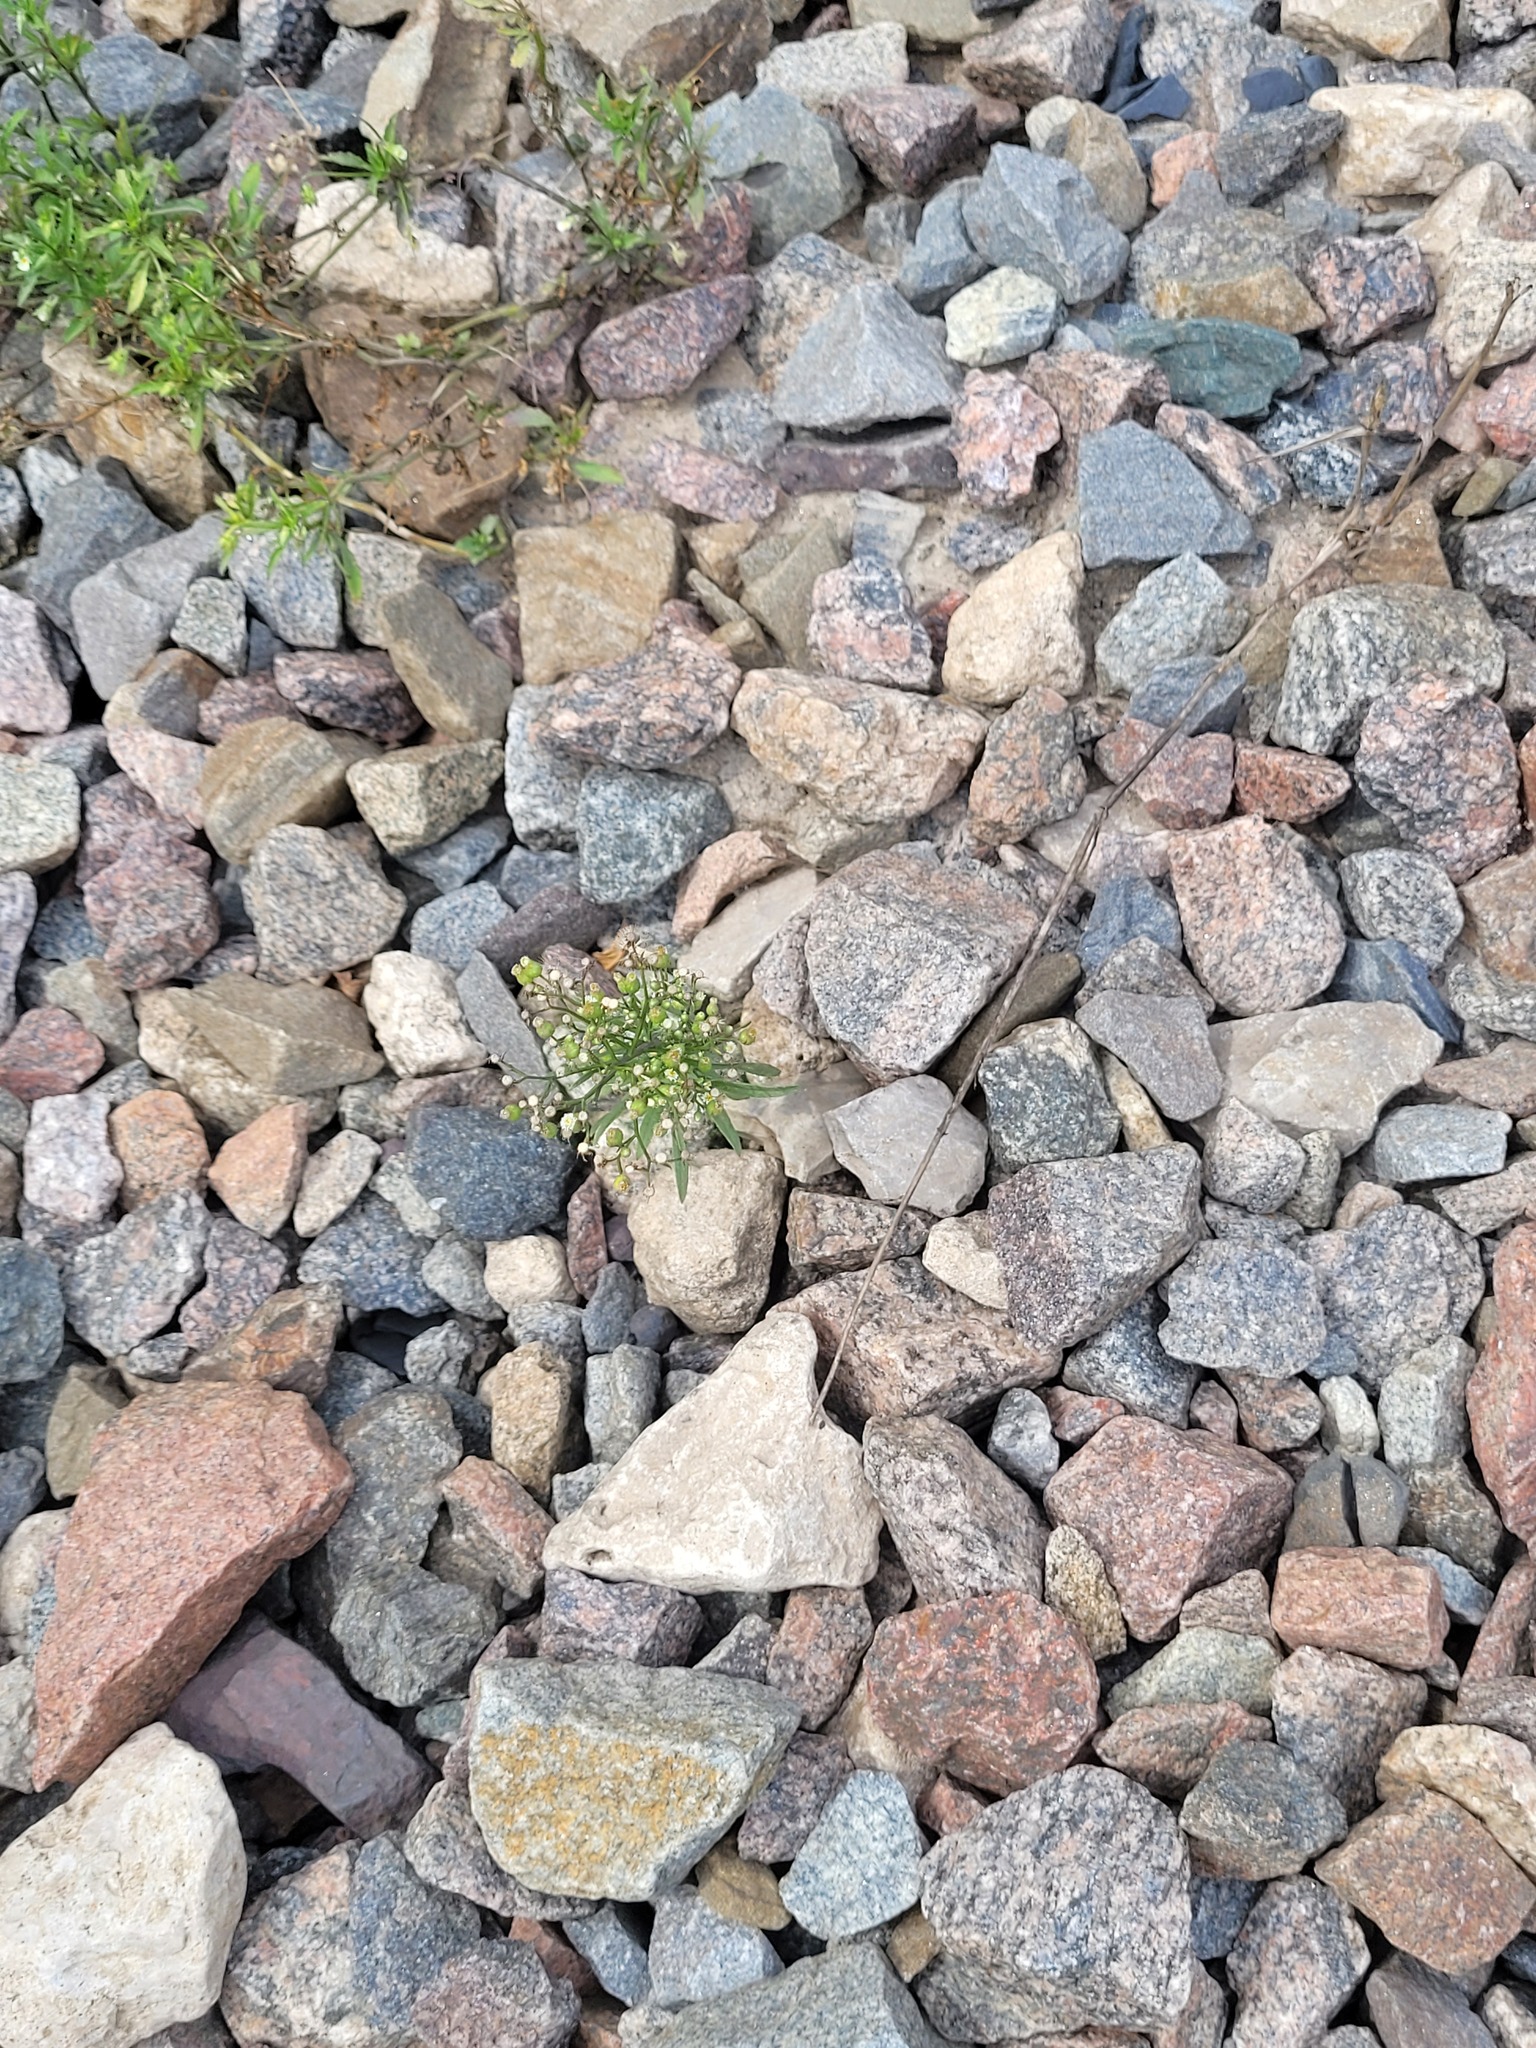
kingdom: Plantae
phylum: Tracheophyta
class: Magnoliopsida
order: Asterales
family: Asteraceae
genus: Erigeron
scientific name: Erigeron canadensis
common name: Canadian fleabane
